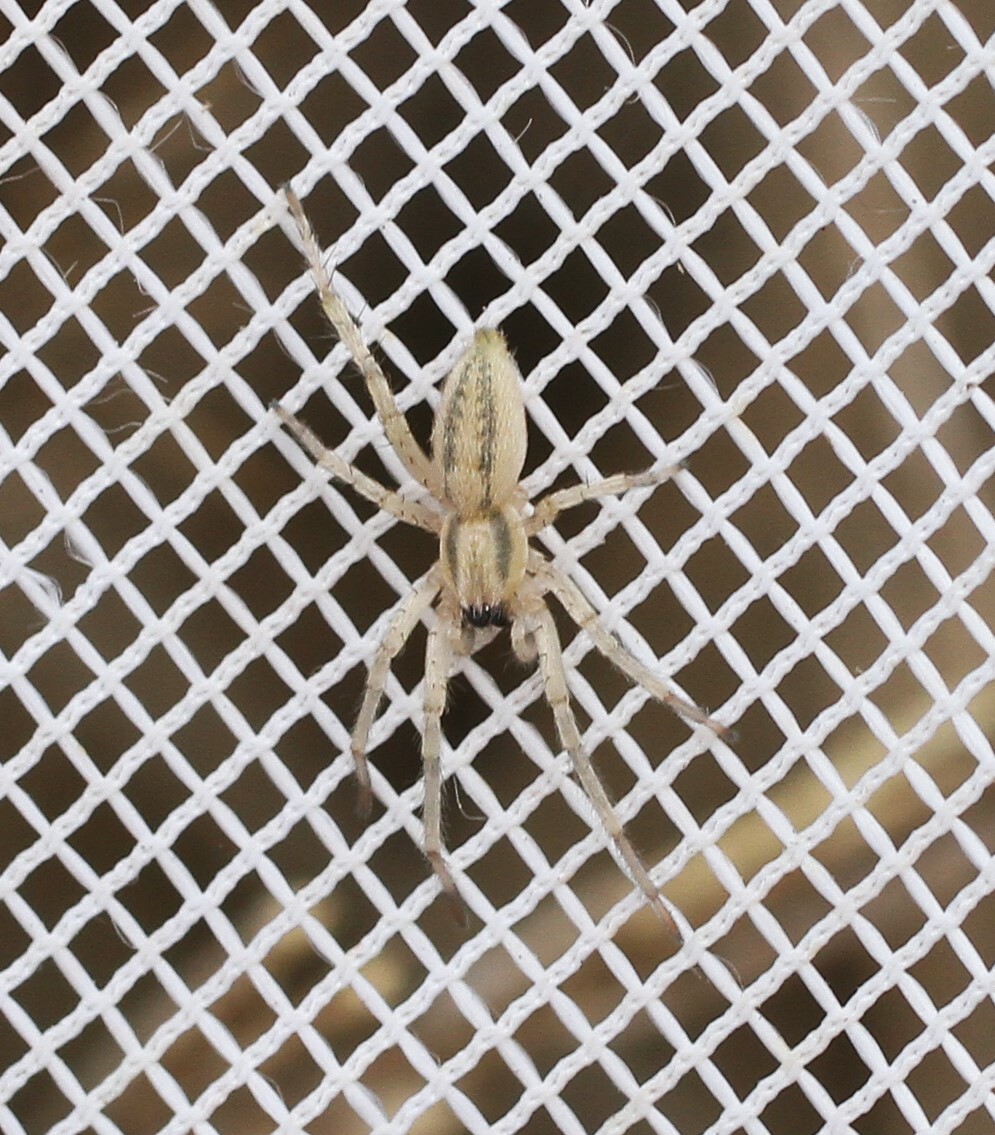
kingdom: Animalia
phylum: Arthropoda
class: Arachnida
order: Araneae
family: Anyphaenidae
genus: Hibana
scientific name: Hibana incursa
